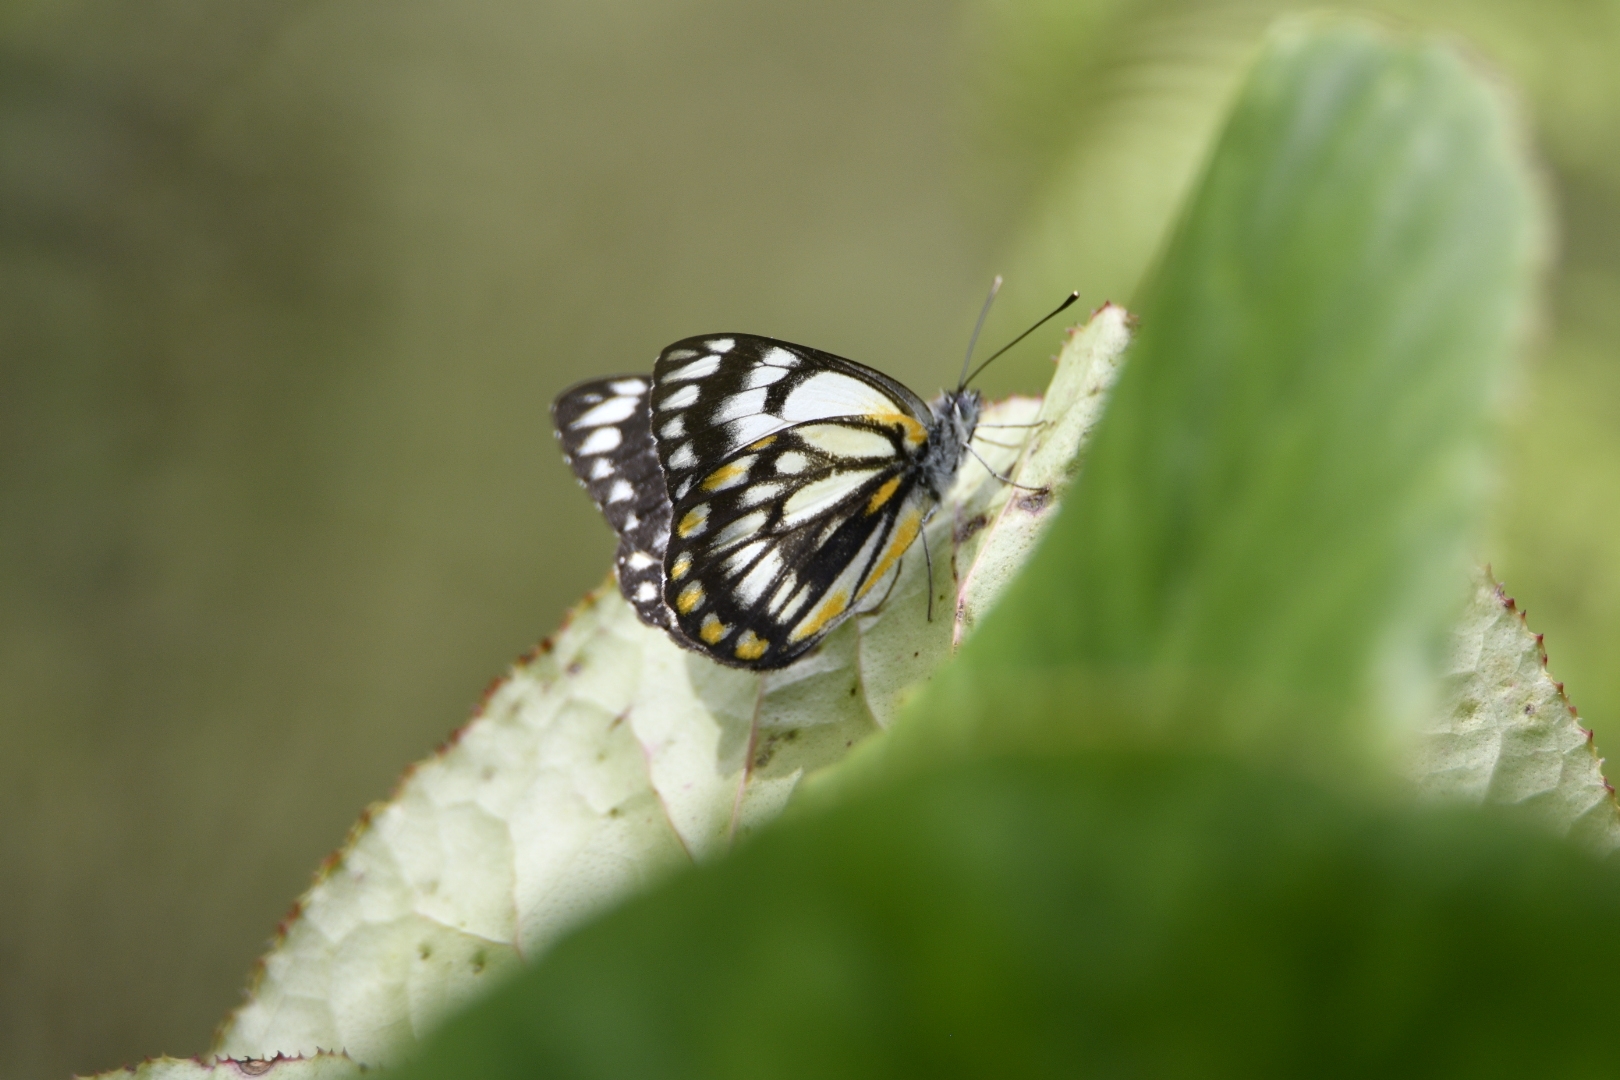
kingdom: Animalia
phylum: Arthropoda
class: Insecta
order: Lepidoptera
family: Pieridae
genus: Belenois
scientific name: Belenois java
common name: Caper white
